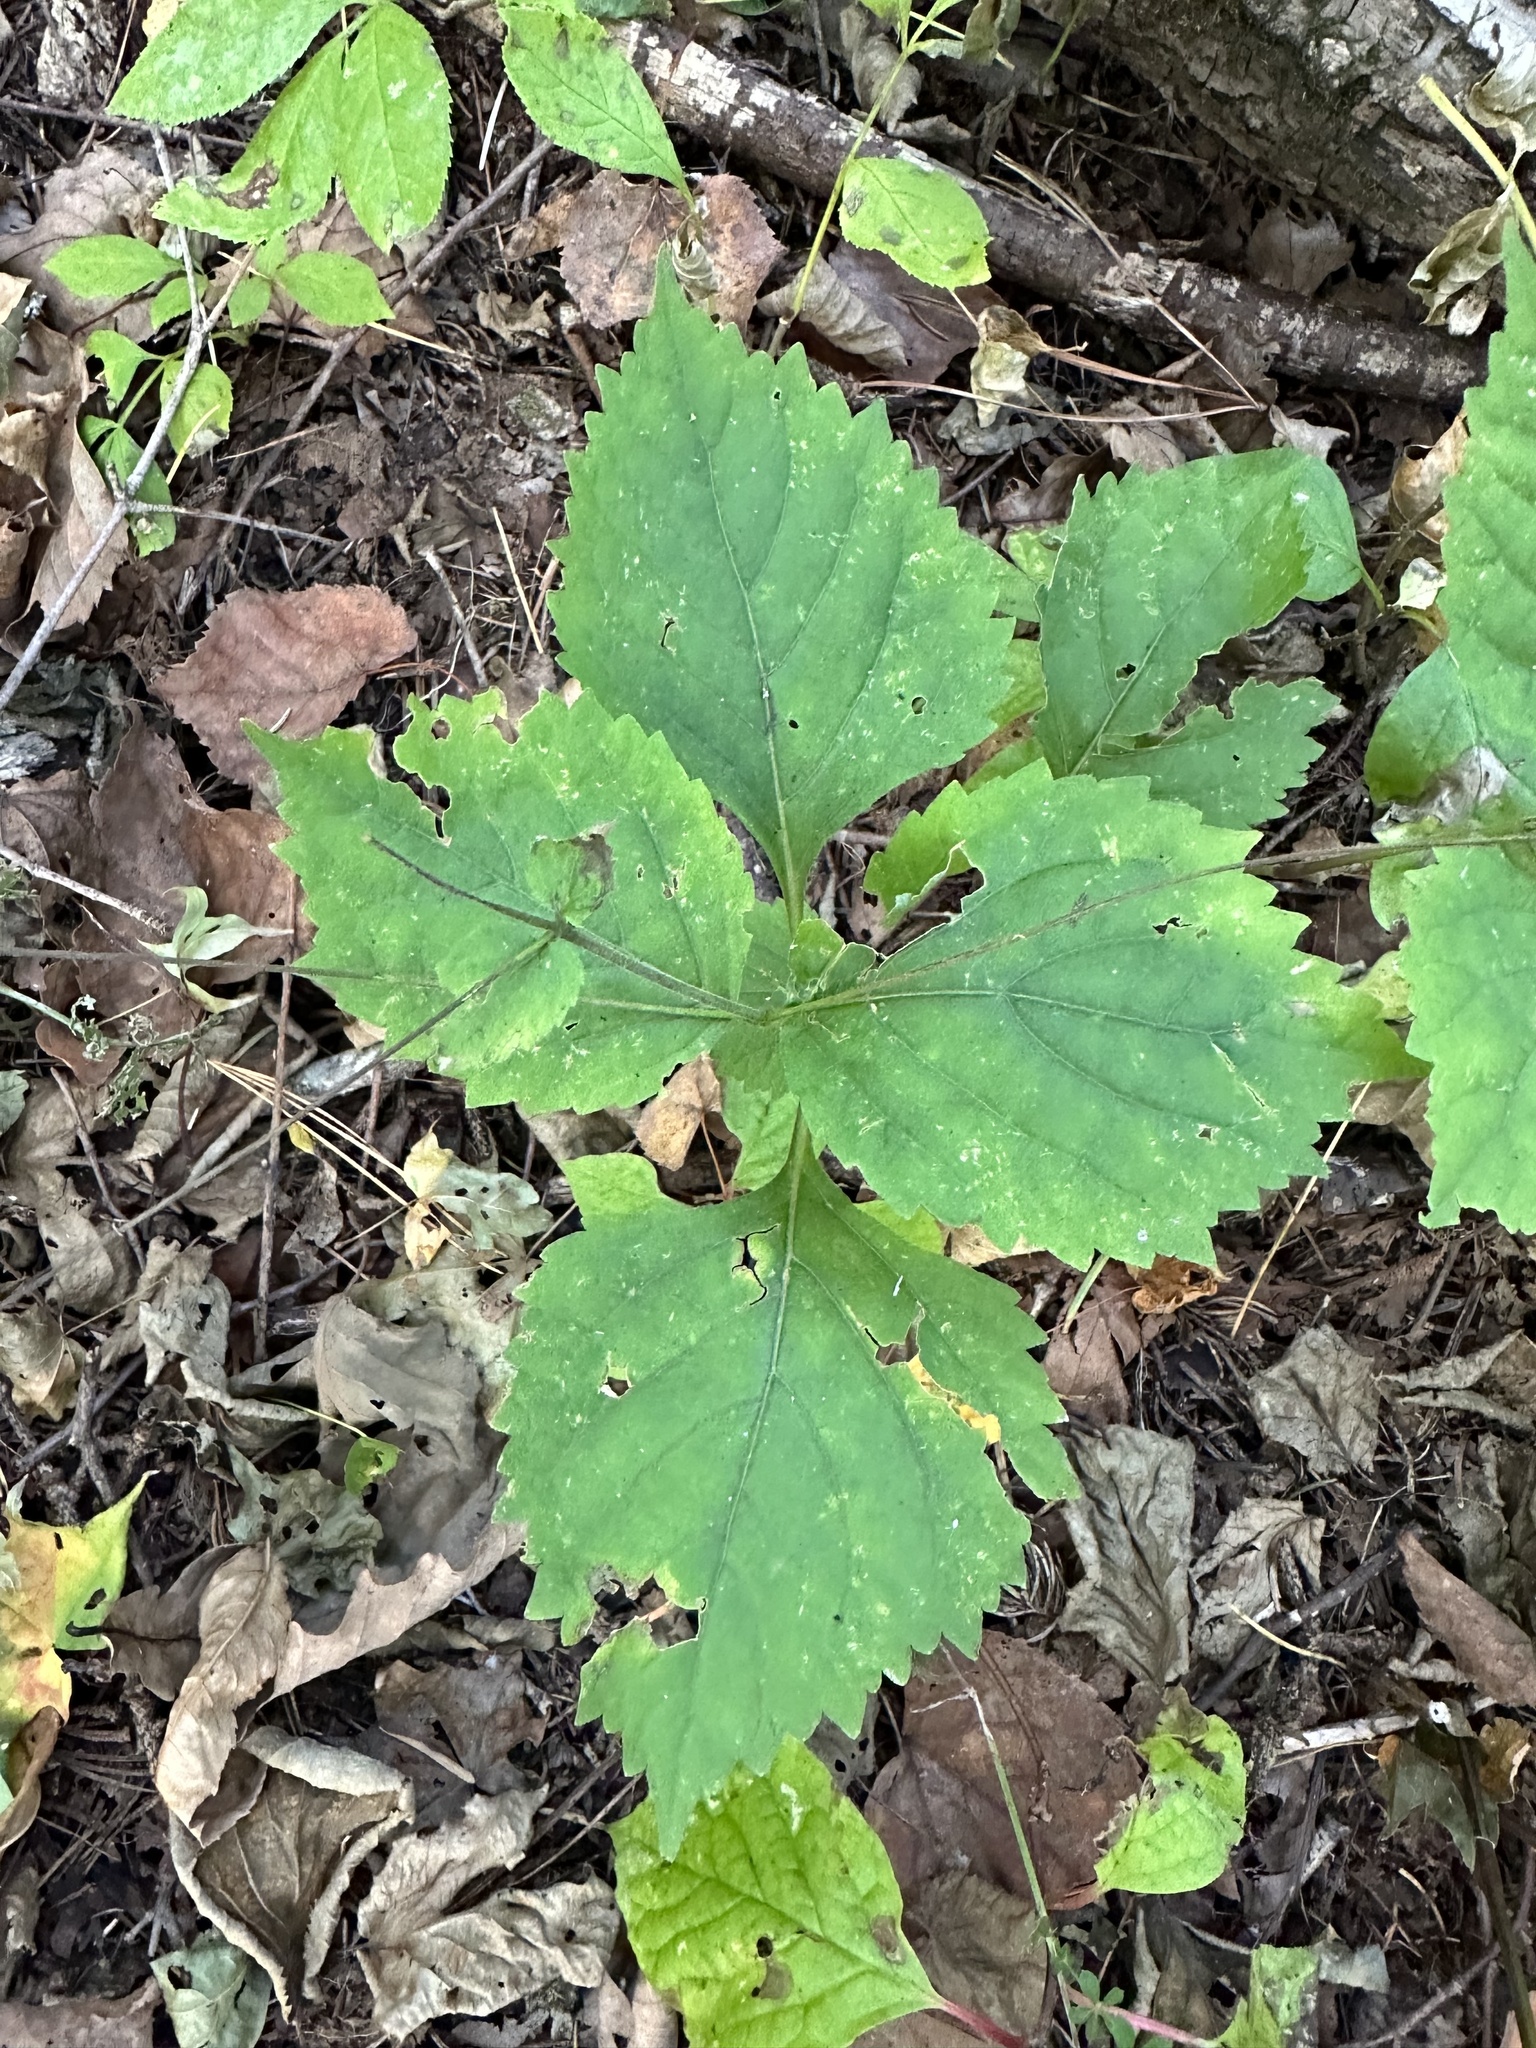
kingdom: Plantae
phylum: Tracheophyta
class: Magnoliopsida
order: Lamiales
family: Phrymaceae
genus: Phryma
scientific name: Phryma nana
